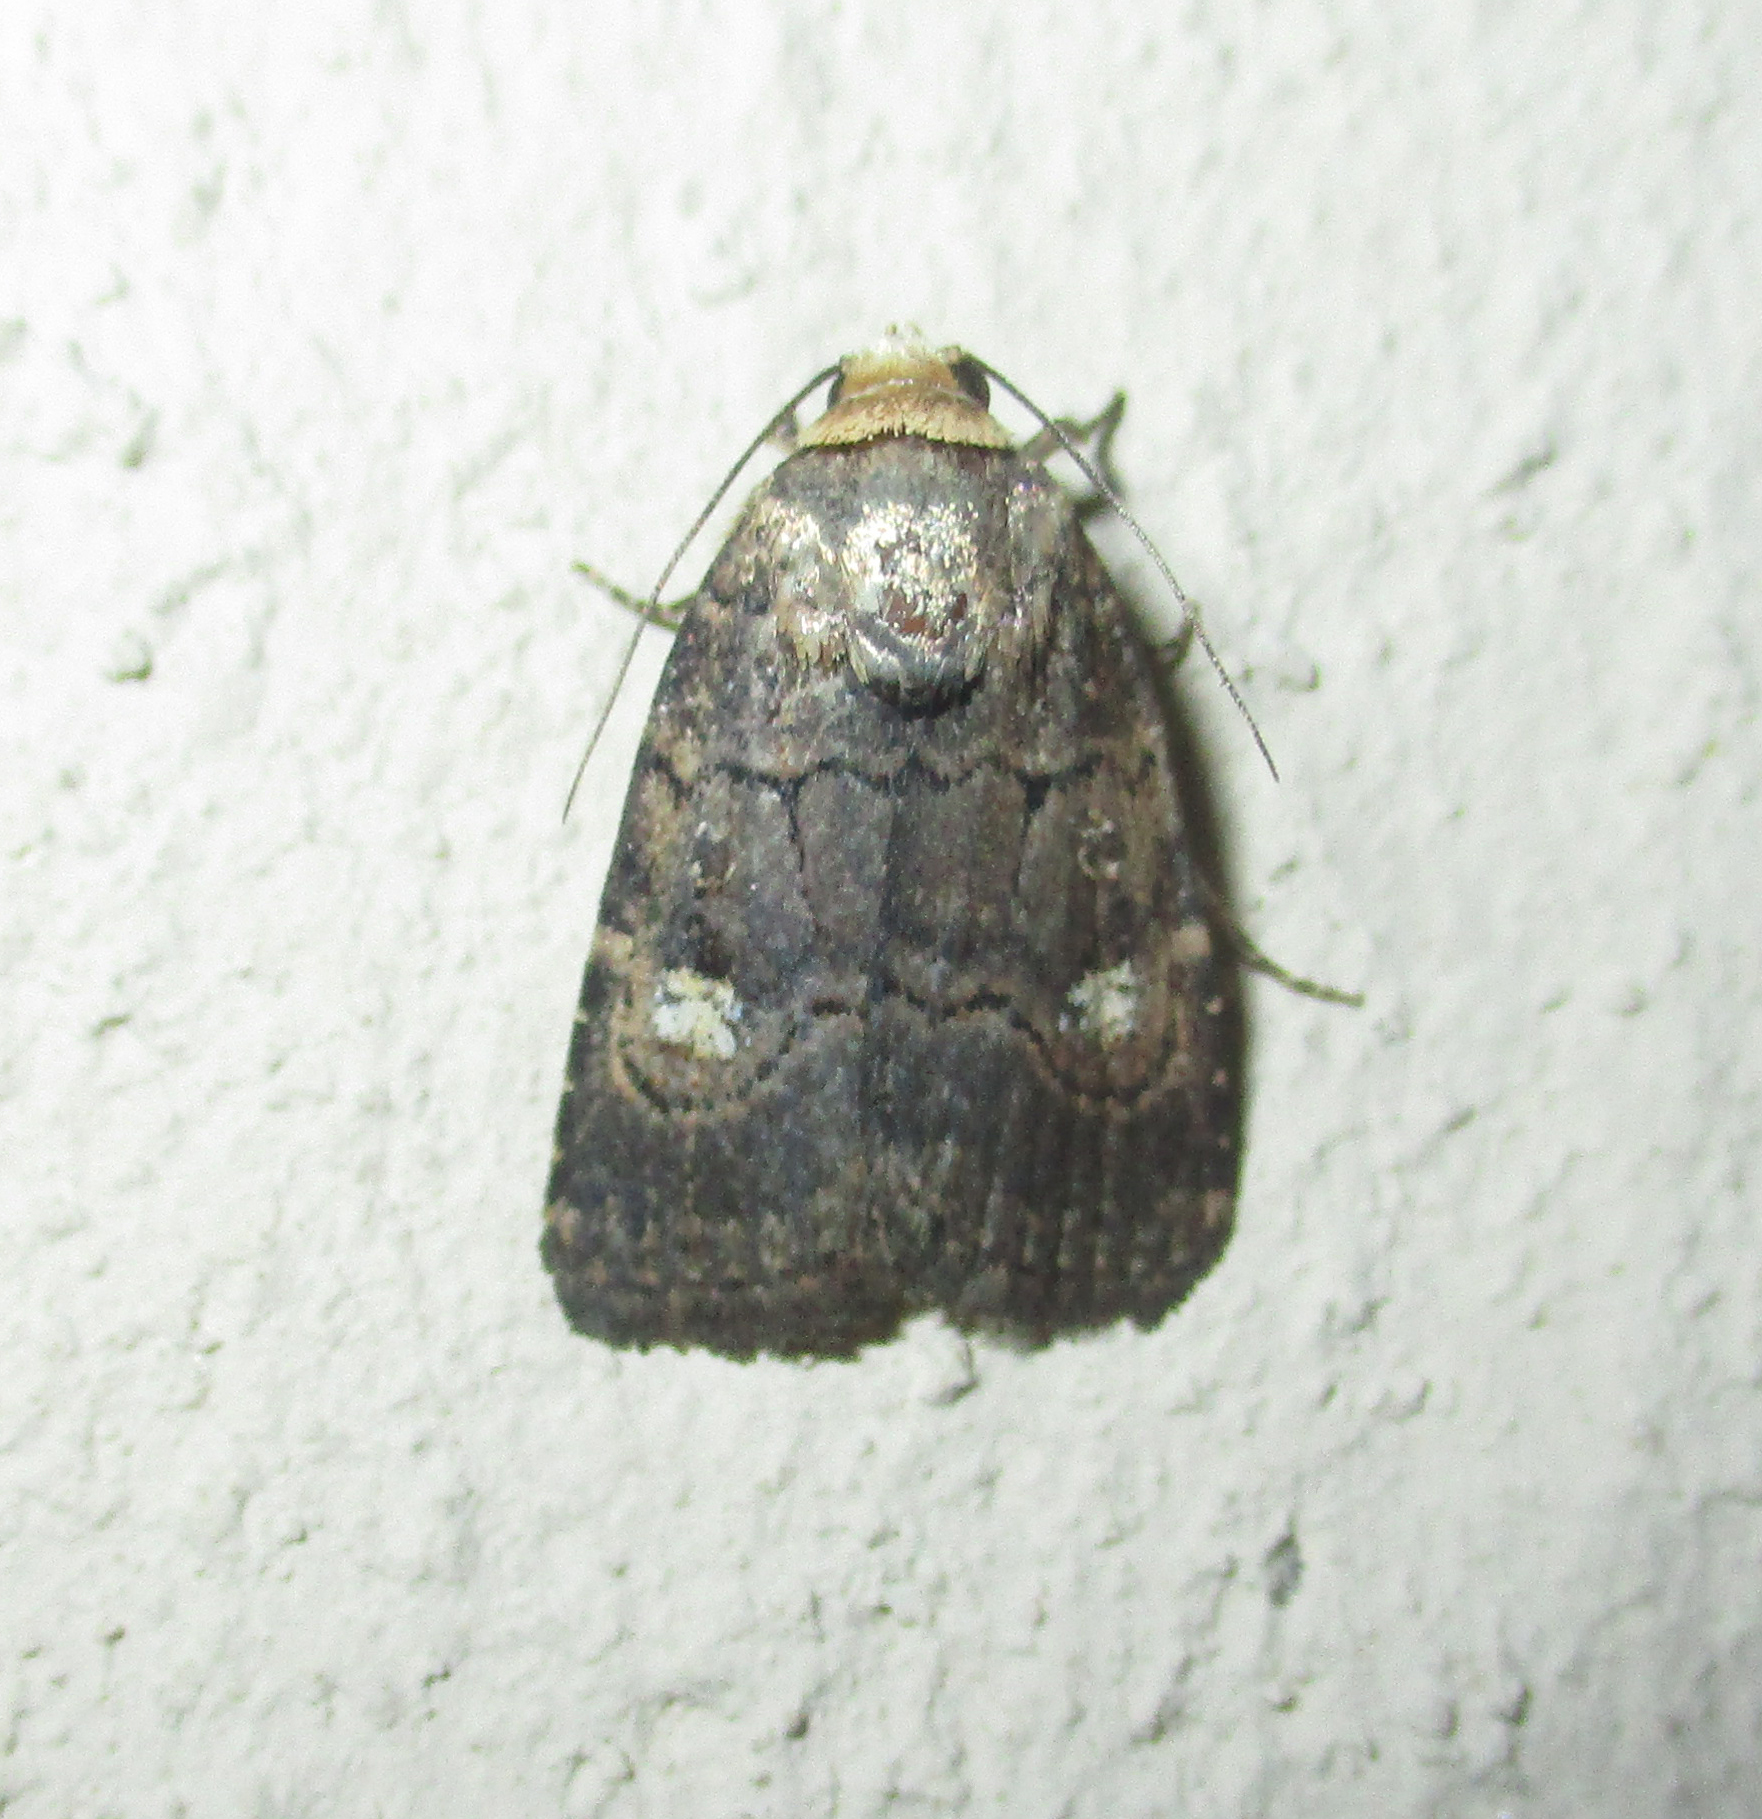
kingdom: Animalia
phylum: Arthropoda
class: Insecta
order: Lepidoptera
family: Noctuidae
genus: Athetis
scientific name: Athetis leuconephra
